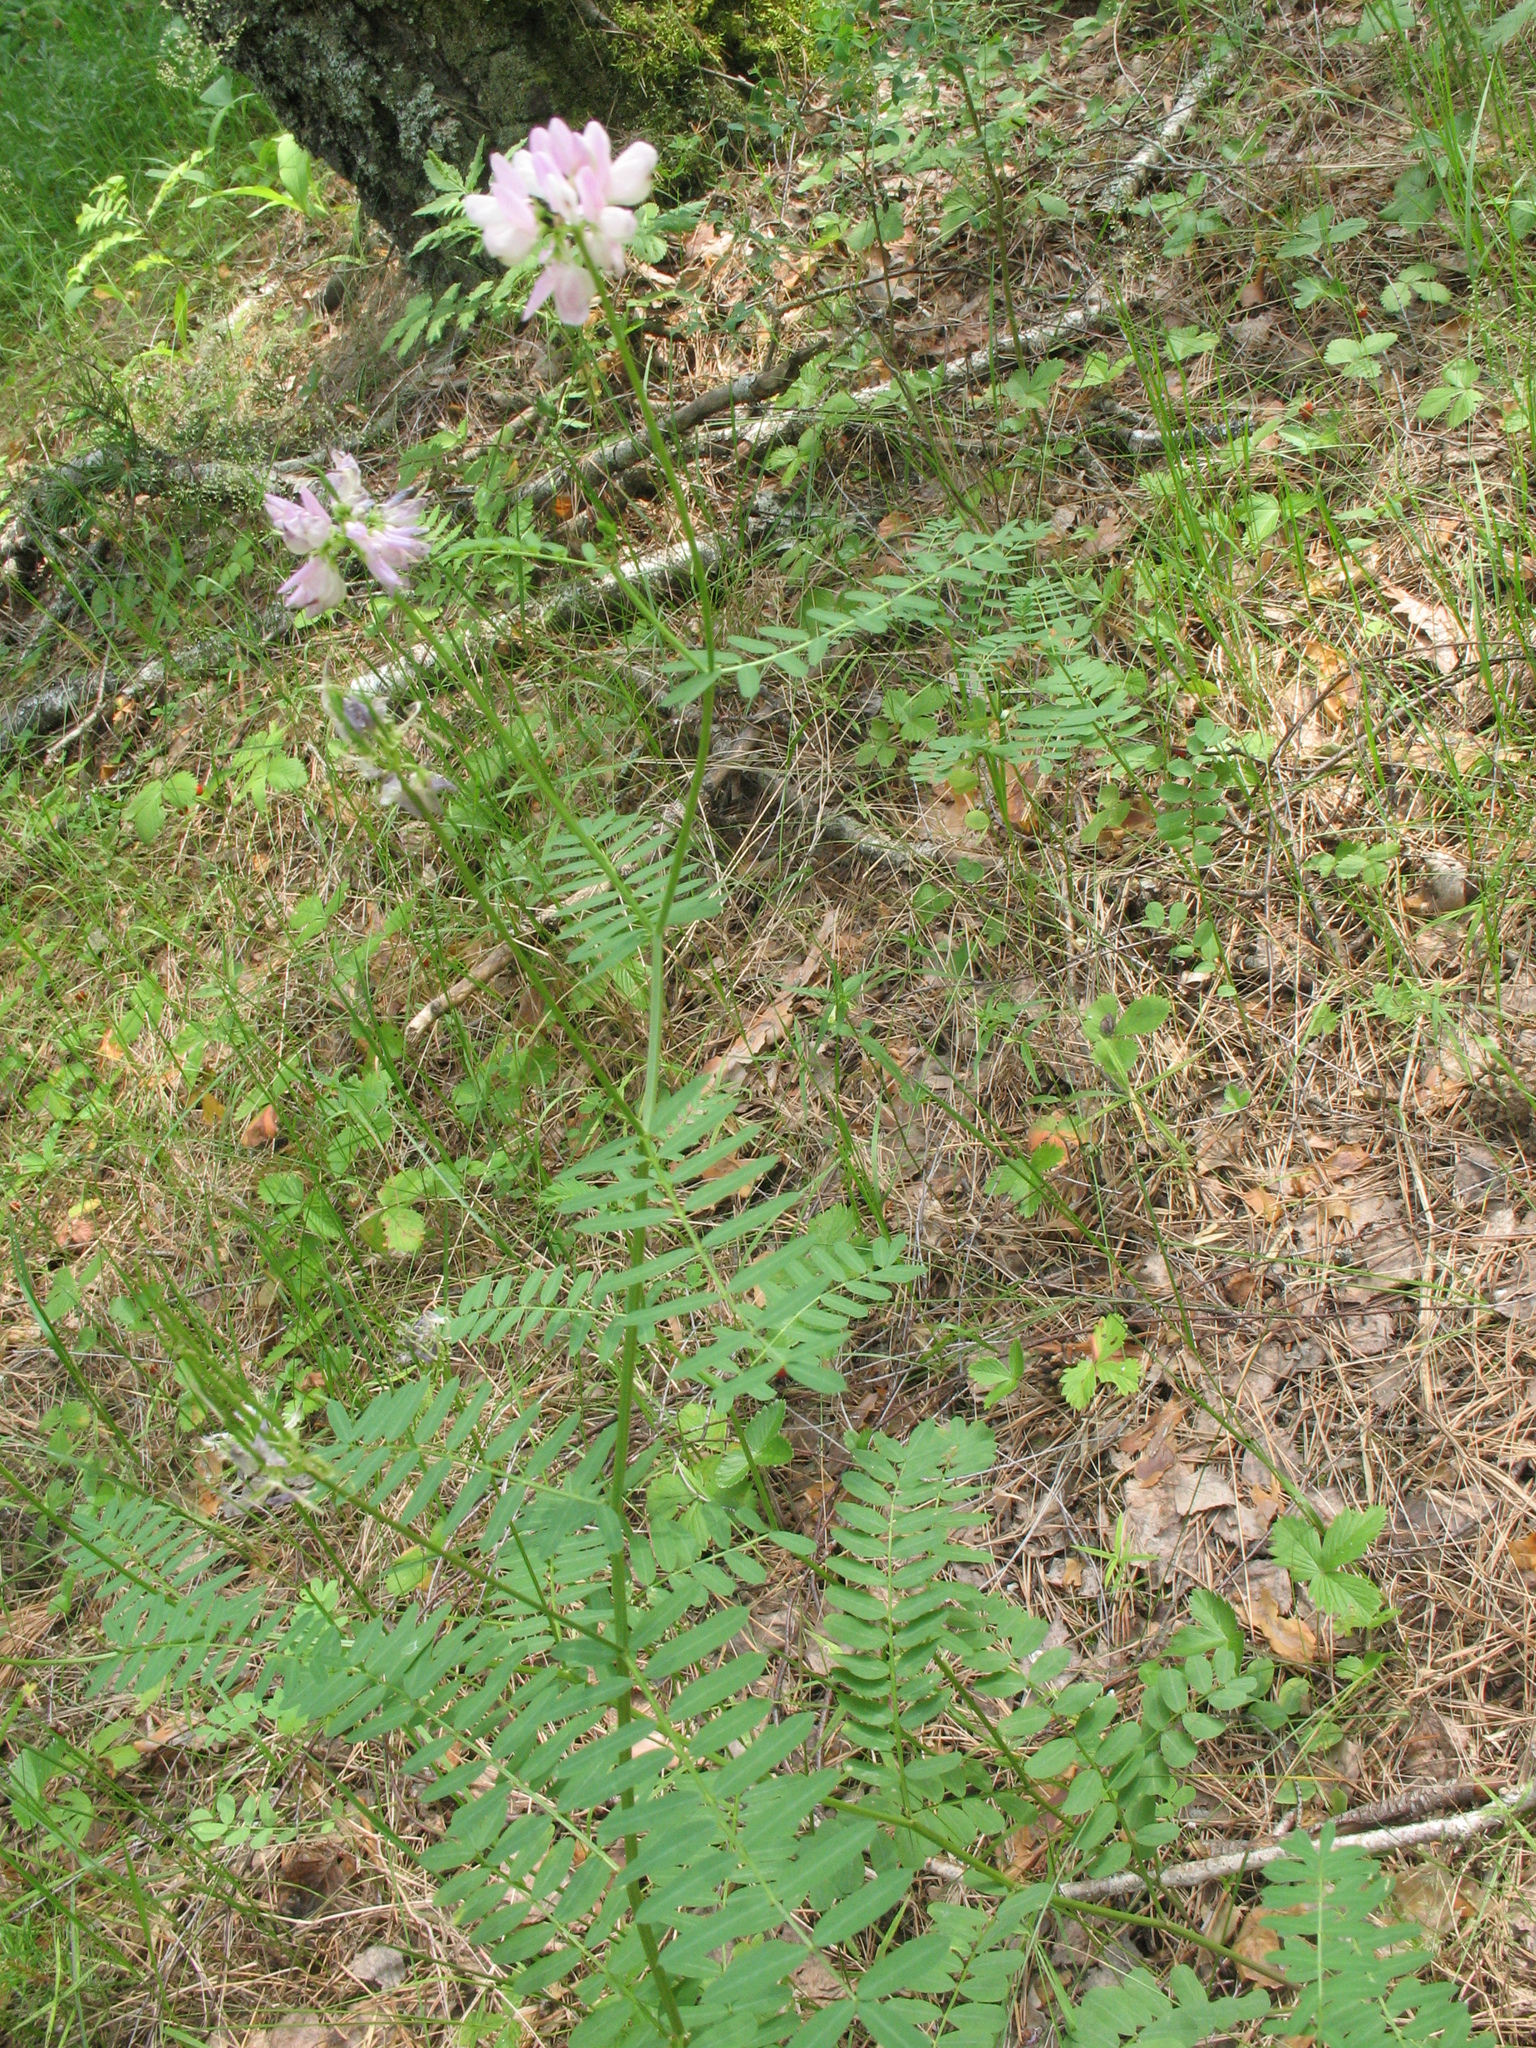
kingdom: Plantae
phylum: Tracheophyta
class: Magnoliopsida
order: Fabales
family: Fabaceae
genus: Coronilla
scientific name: Coronilla varia
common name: Crownvetch
